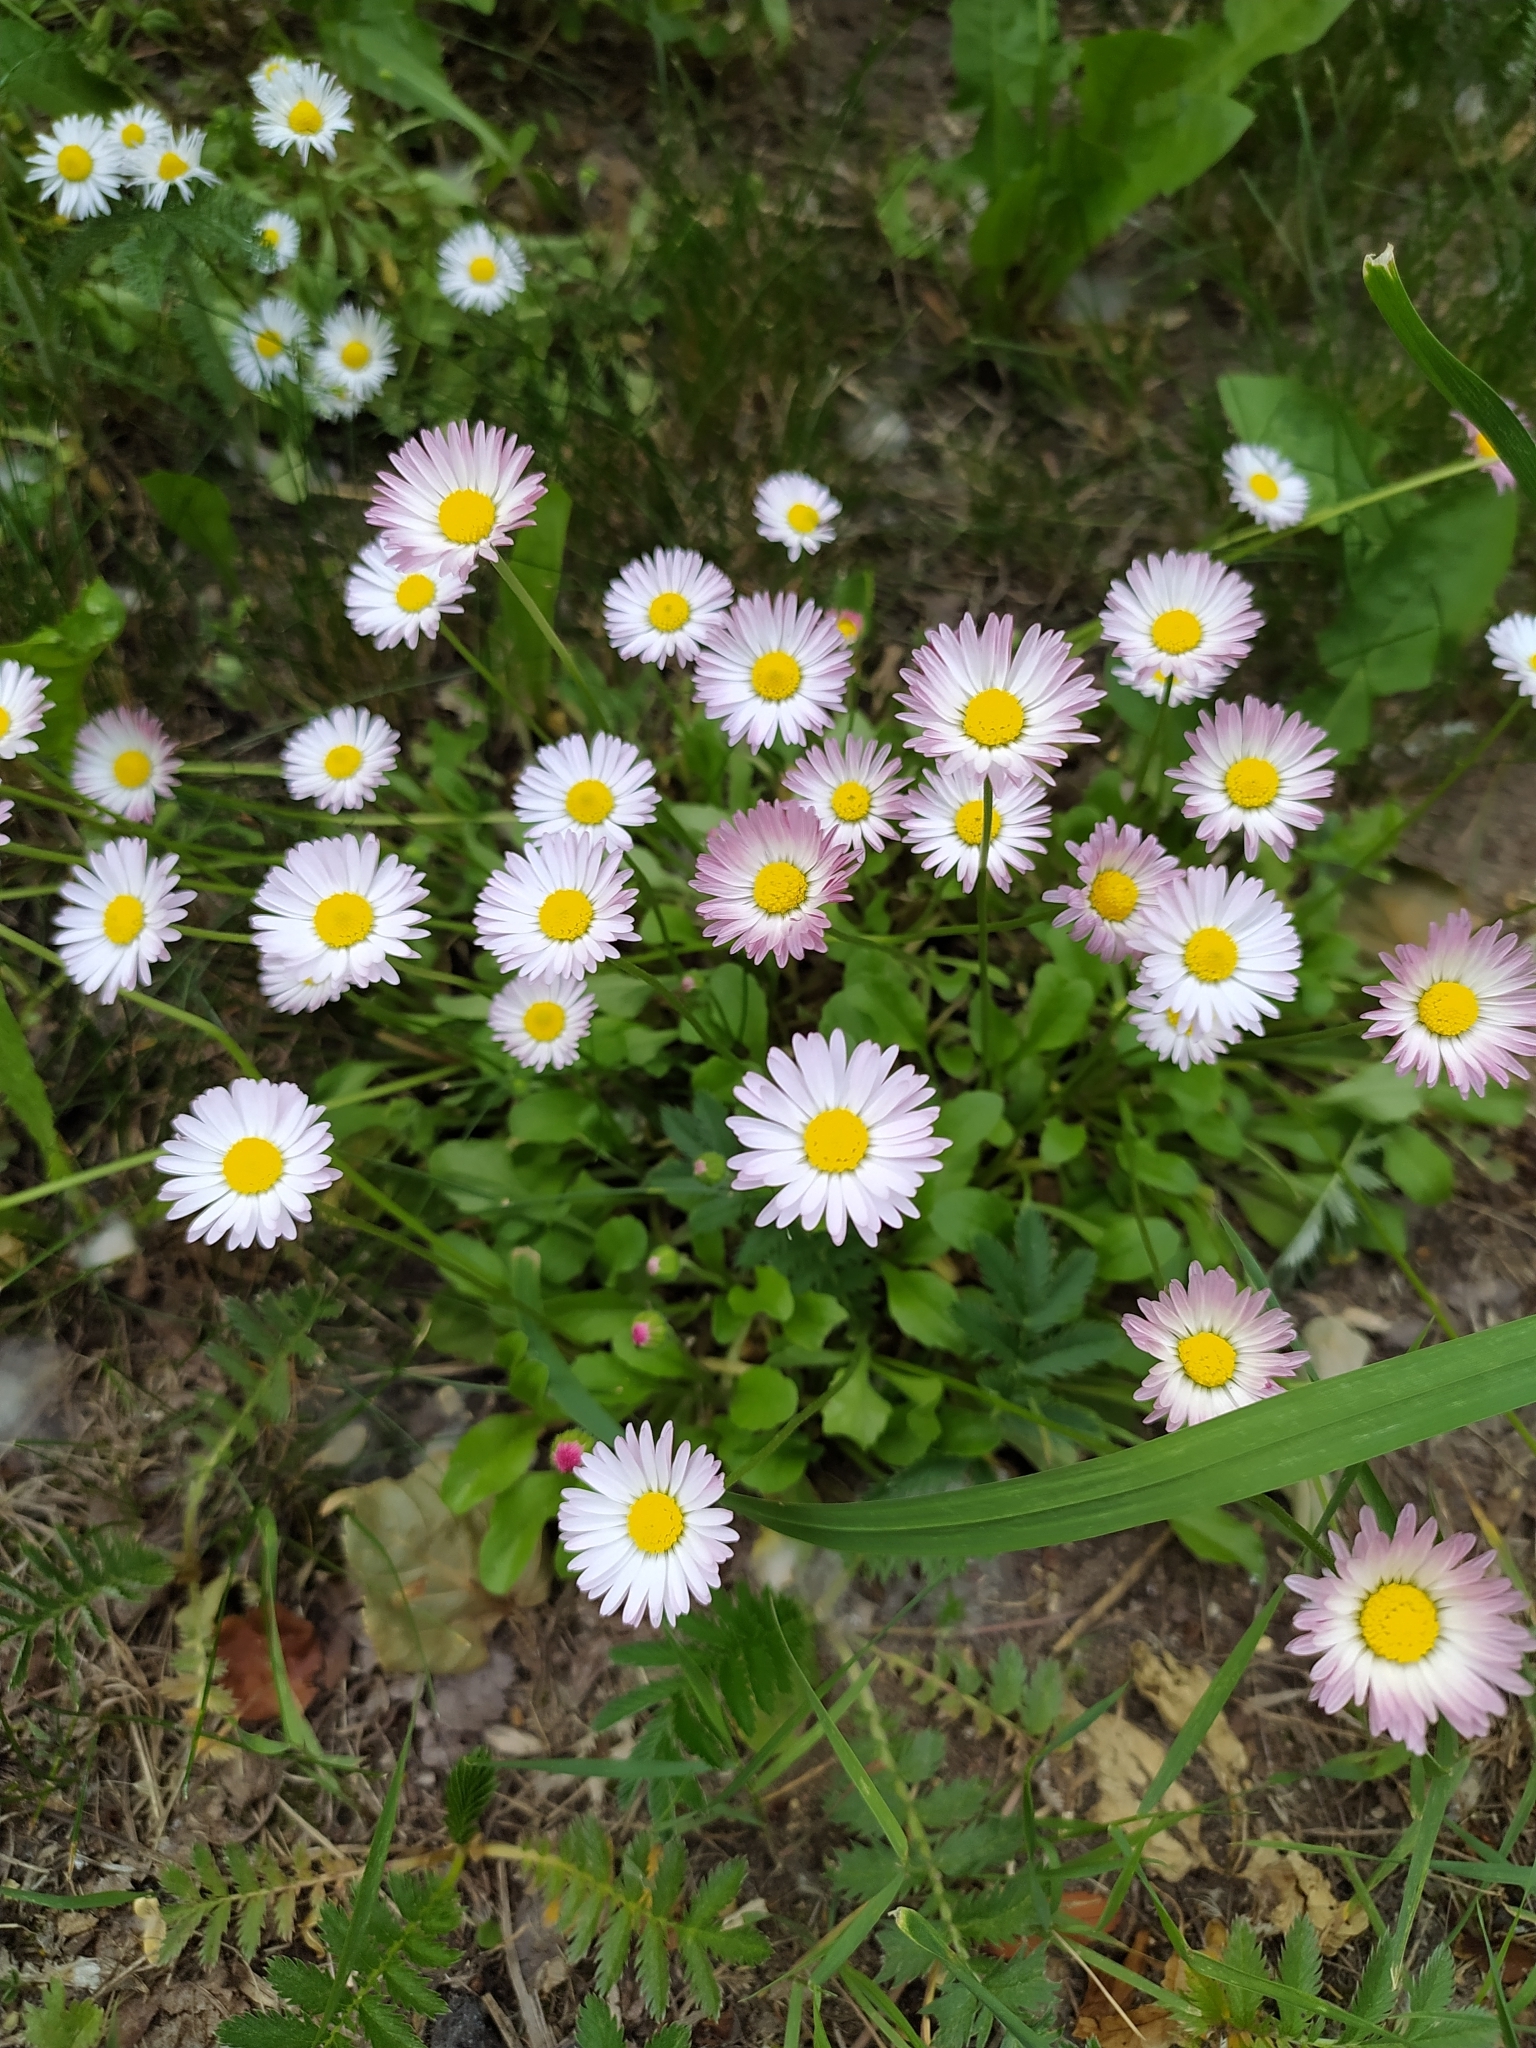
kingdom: Plantae
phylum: Tracheophyta
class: Magnoliopsida
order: Asterales
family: Asteraceae
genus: Bellis
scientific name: Bellis perennis
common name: Lawndaisy
